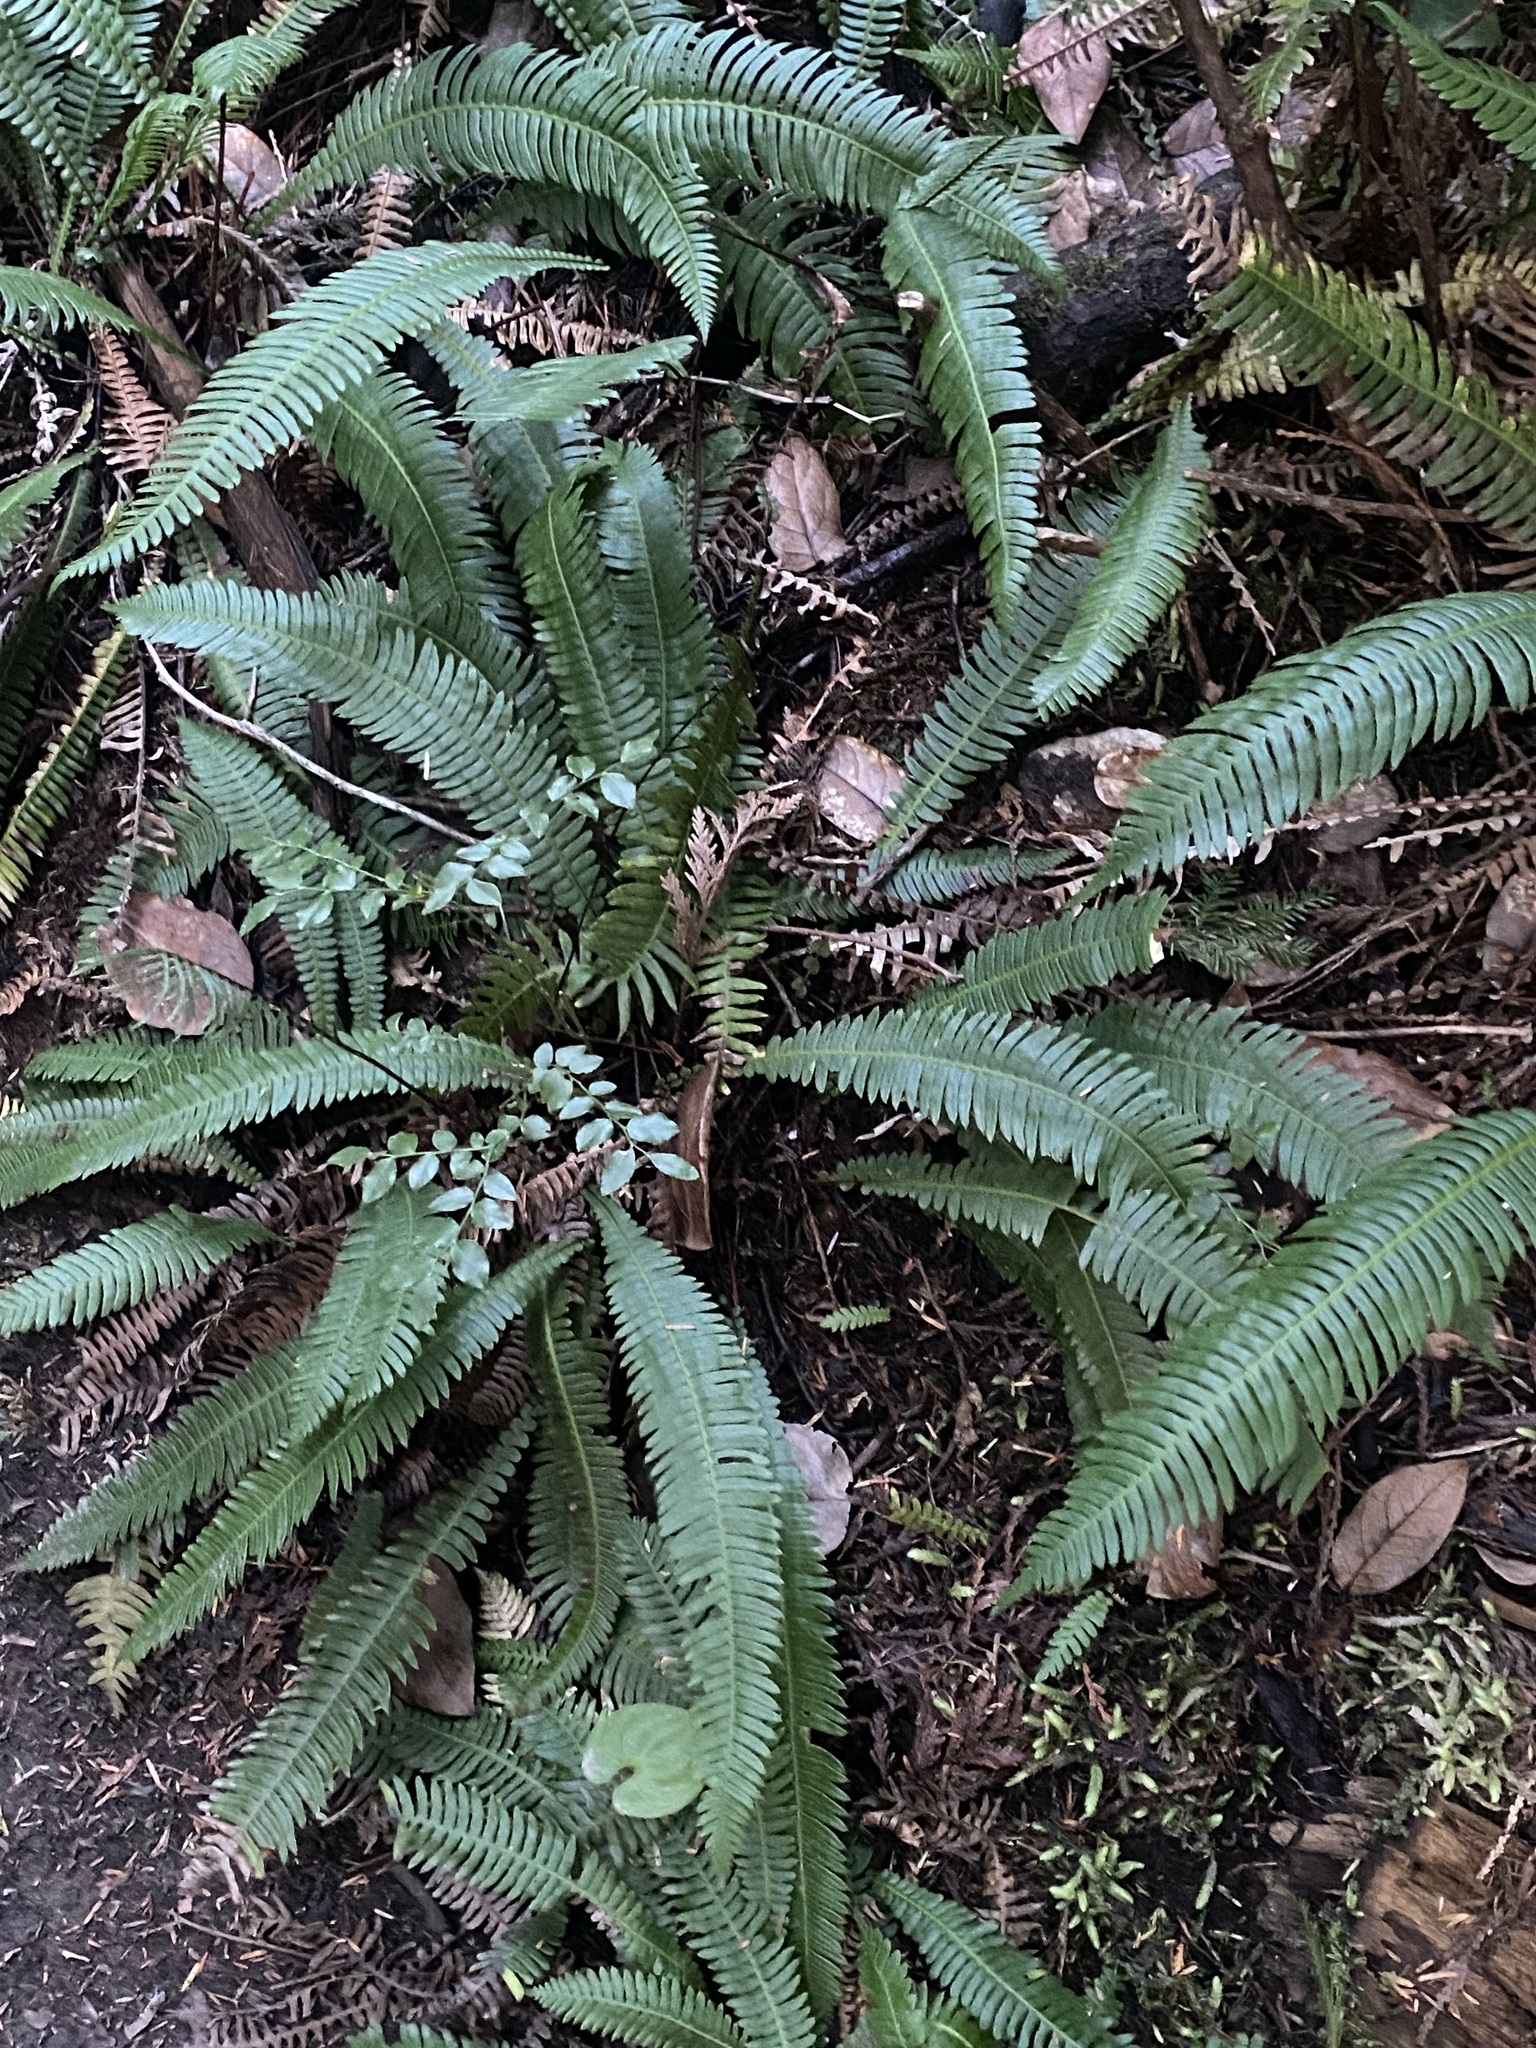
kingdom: Plantae
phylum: Tracheophyta
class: Polypodiopsida
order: Polypodiales
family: Blechnaceae
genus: Struthiopteris
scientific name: Struthiopteris spicant
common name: Deer fern
